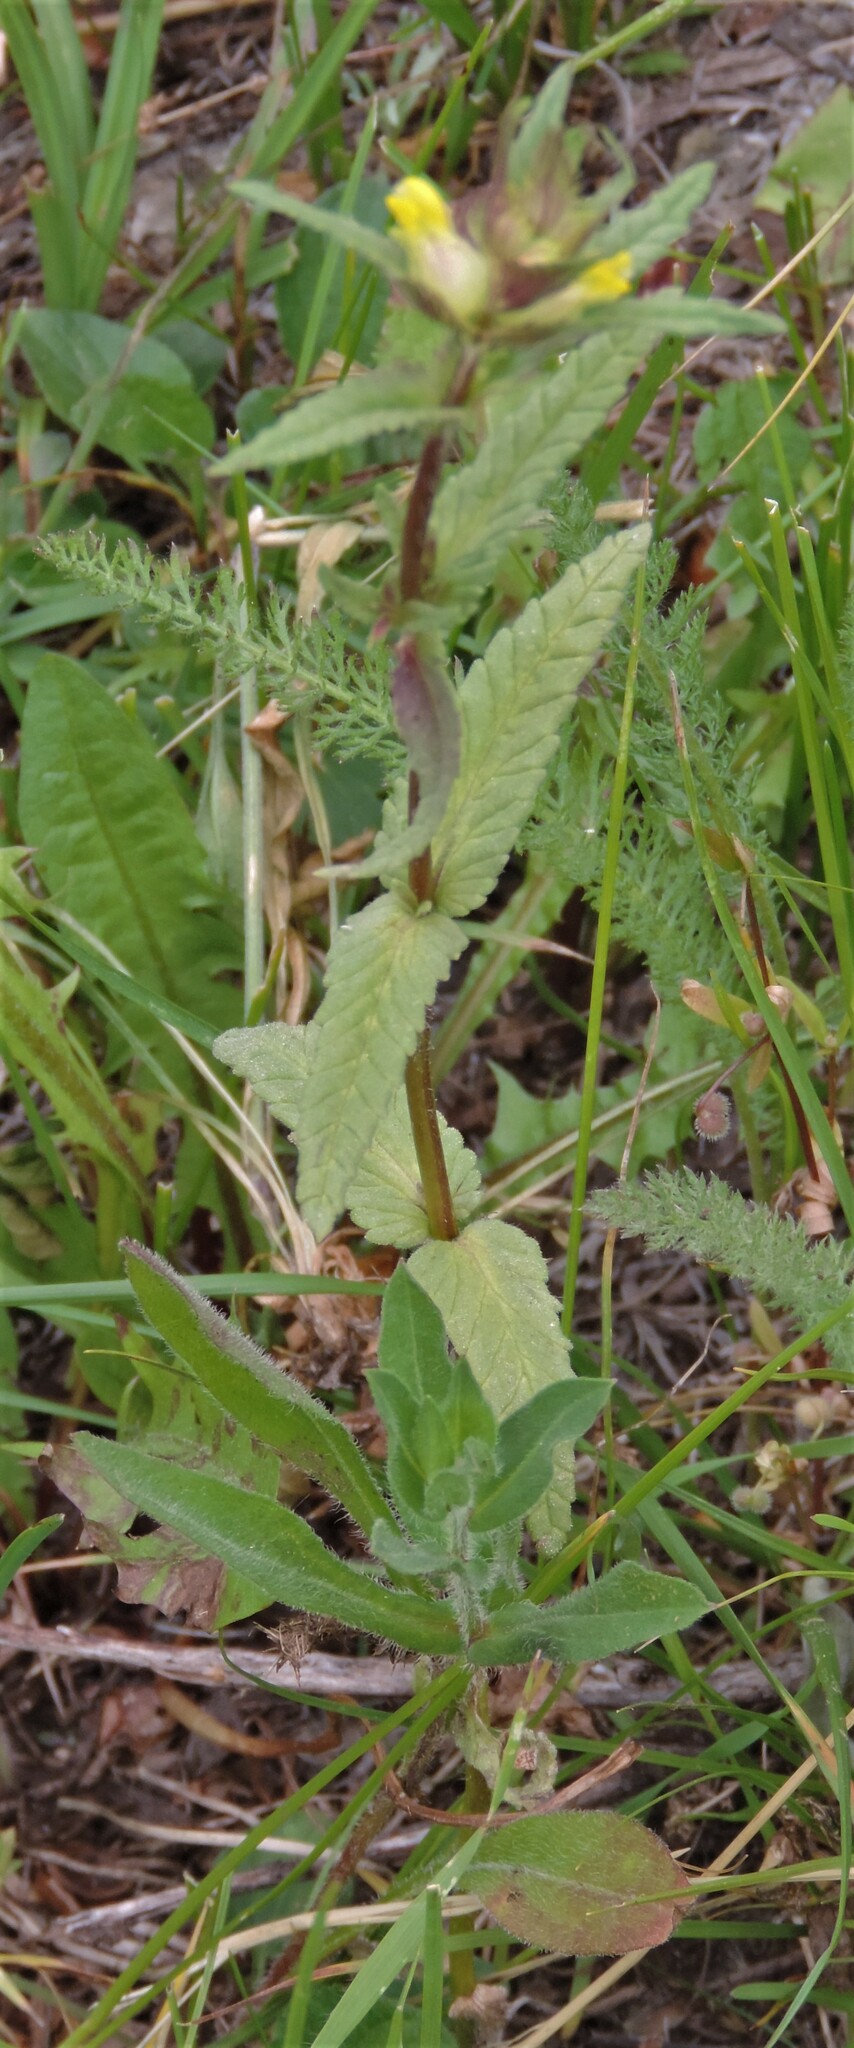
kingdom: Plantae
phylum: Tracheophyta
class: Magnoliopsida
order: Lamiales
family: Orobanchaceae
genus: Rhinanthus
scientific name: Rhinanthus groenlandicus
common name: Little yellow rattle
